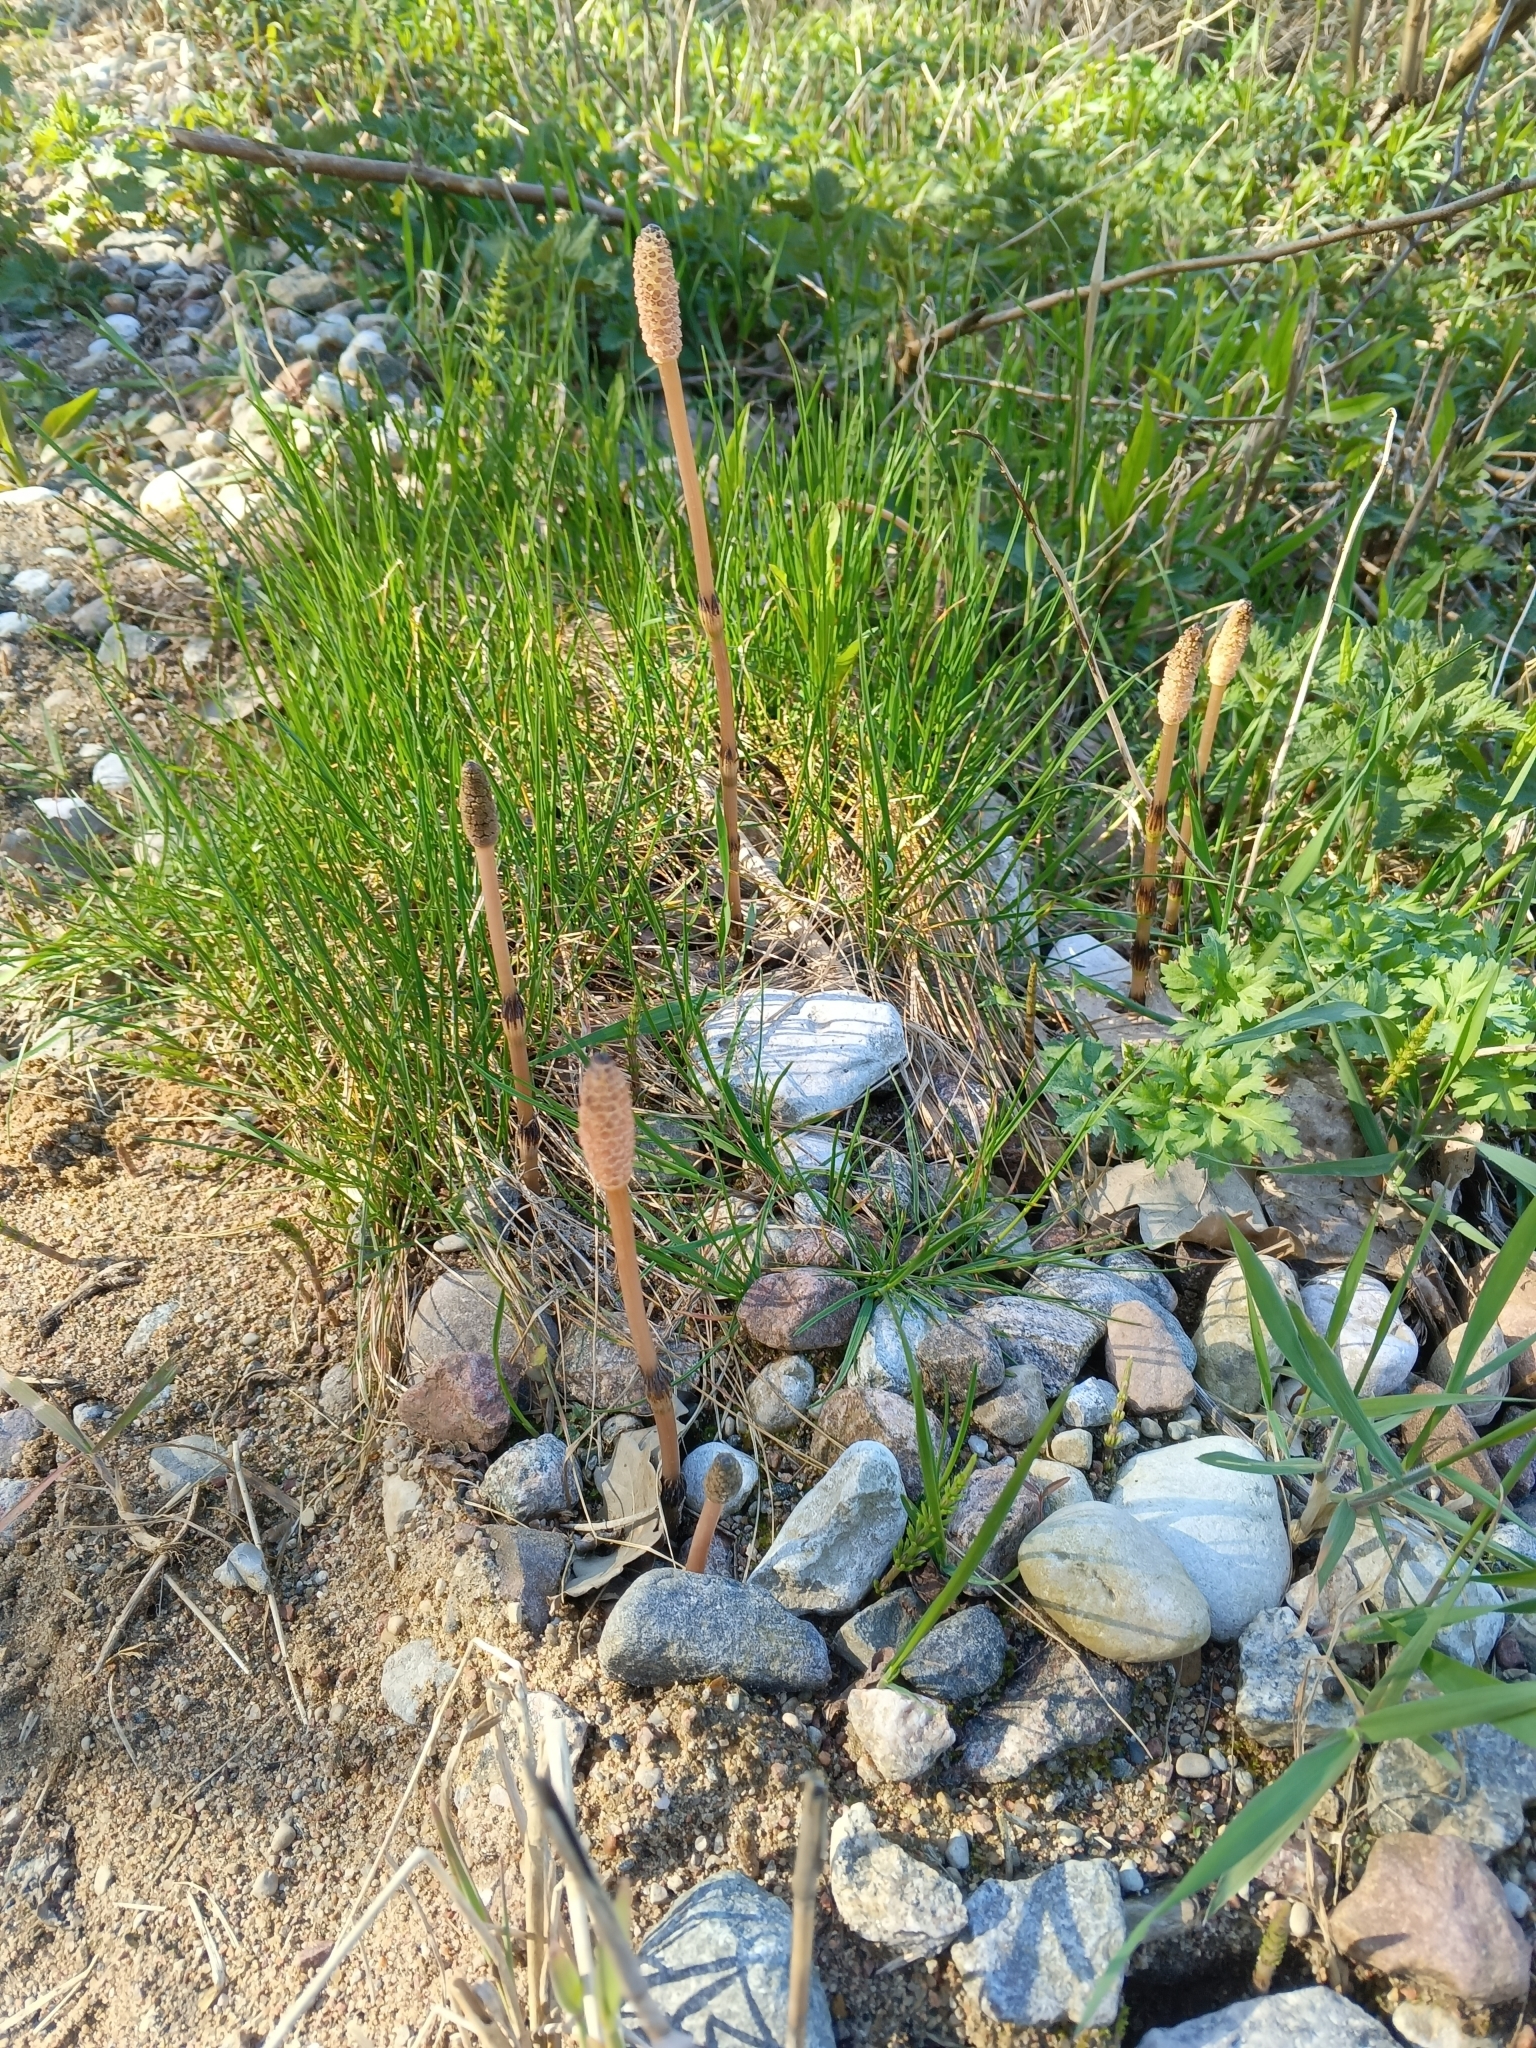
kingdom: Plantae
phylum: Tracheophyta
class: Polypodiopsida
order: Equisetales
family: Equisetaceae
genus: Equisetum
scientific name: Equisetum arvense
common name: Field horsetail
